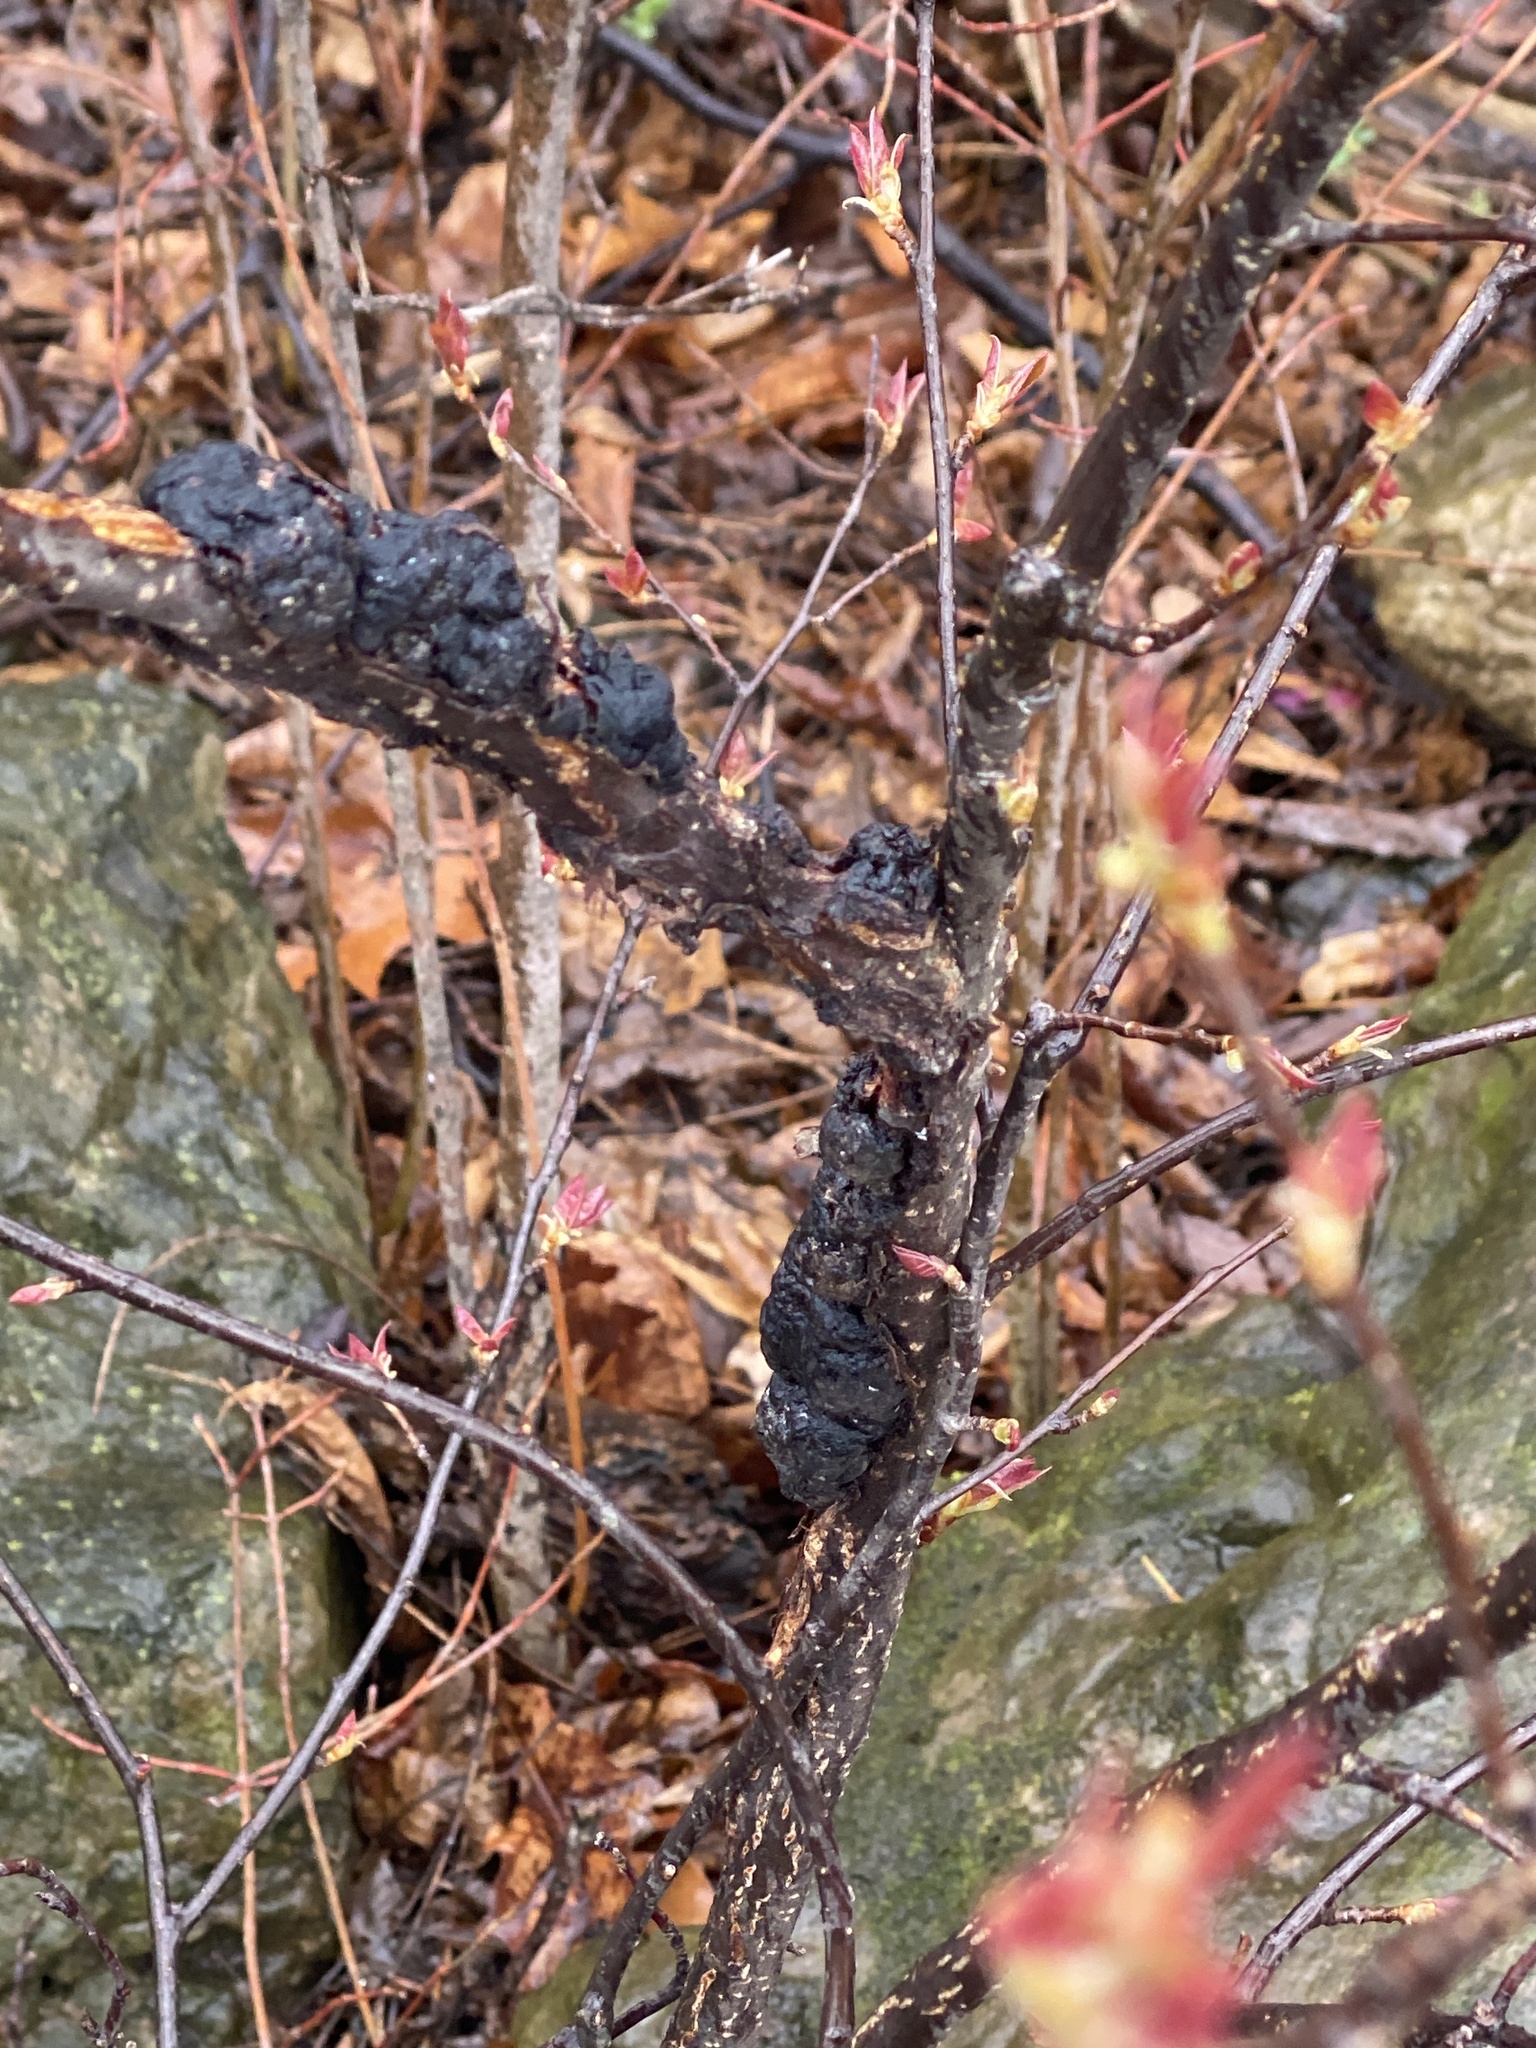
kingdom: Fungi
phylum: Ascomycota
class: Dothideomycetes
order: Venturiales
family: Venturiaceae
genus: Apiosporina
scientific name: Apiosporina morbosa
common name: Black knot
